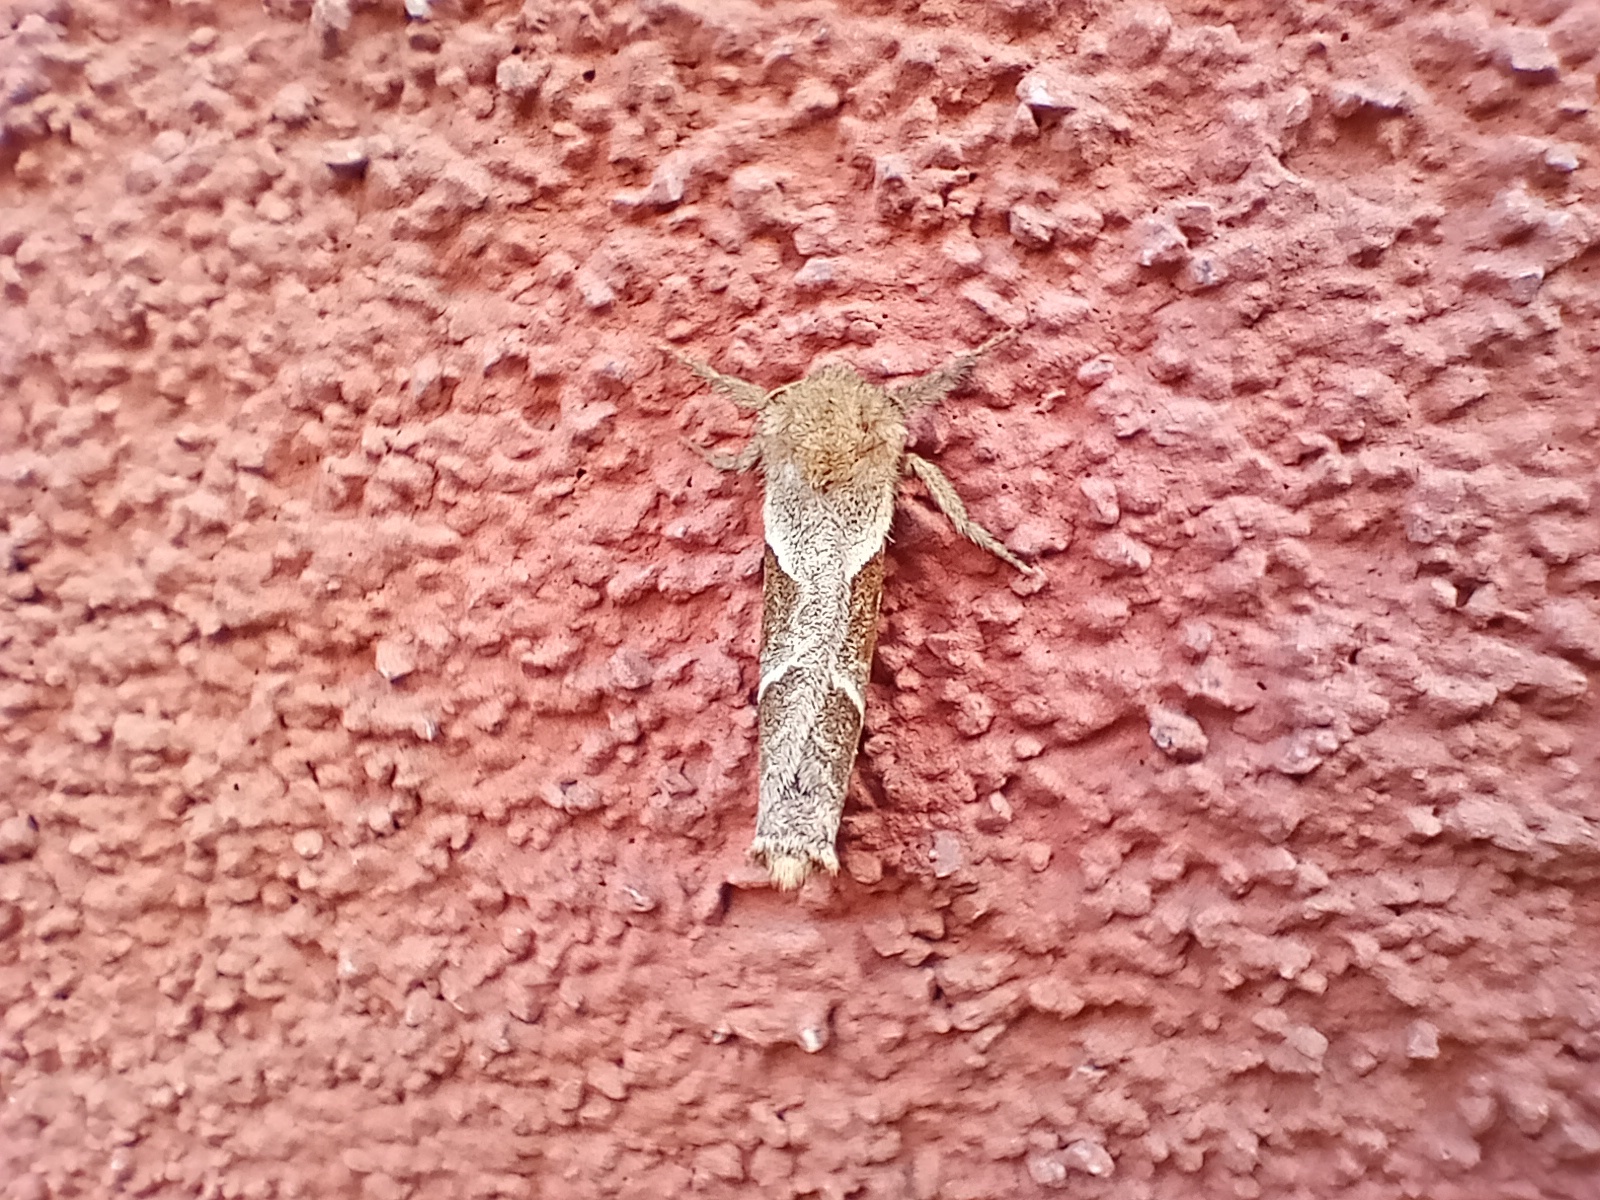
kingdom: Animalia
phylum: Arthropoda
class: Insecta
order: Lepidoptera
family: Hepialidae
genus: Triodia
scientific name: Triodia sylvina
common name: Orange swift
